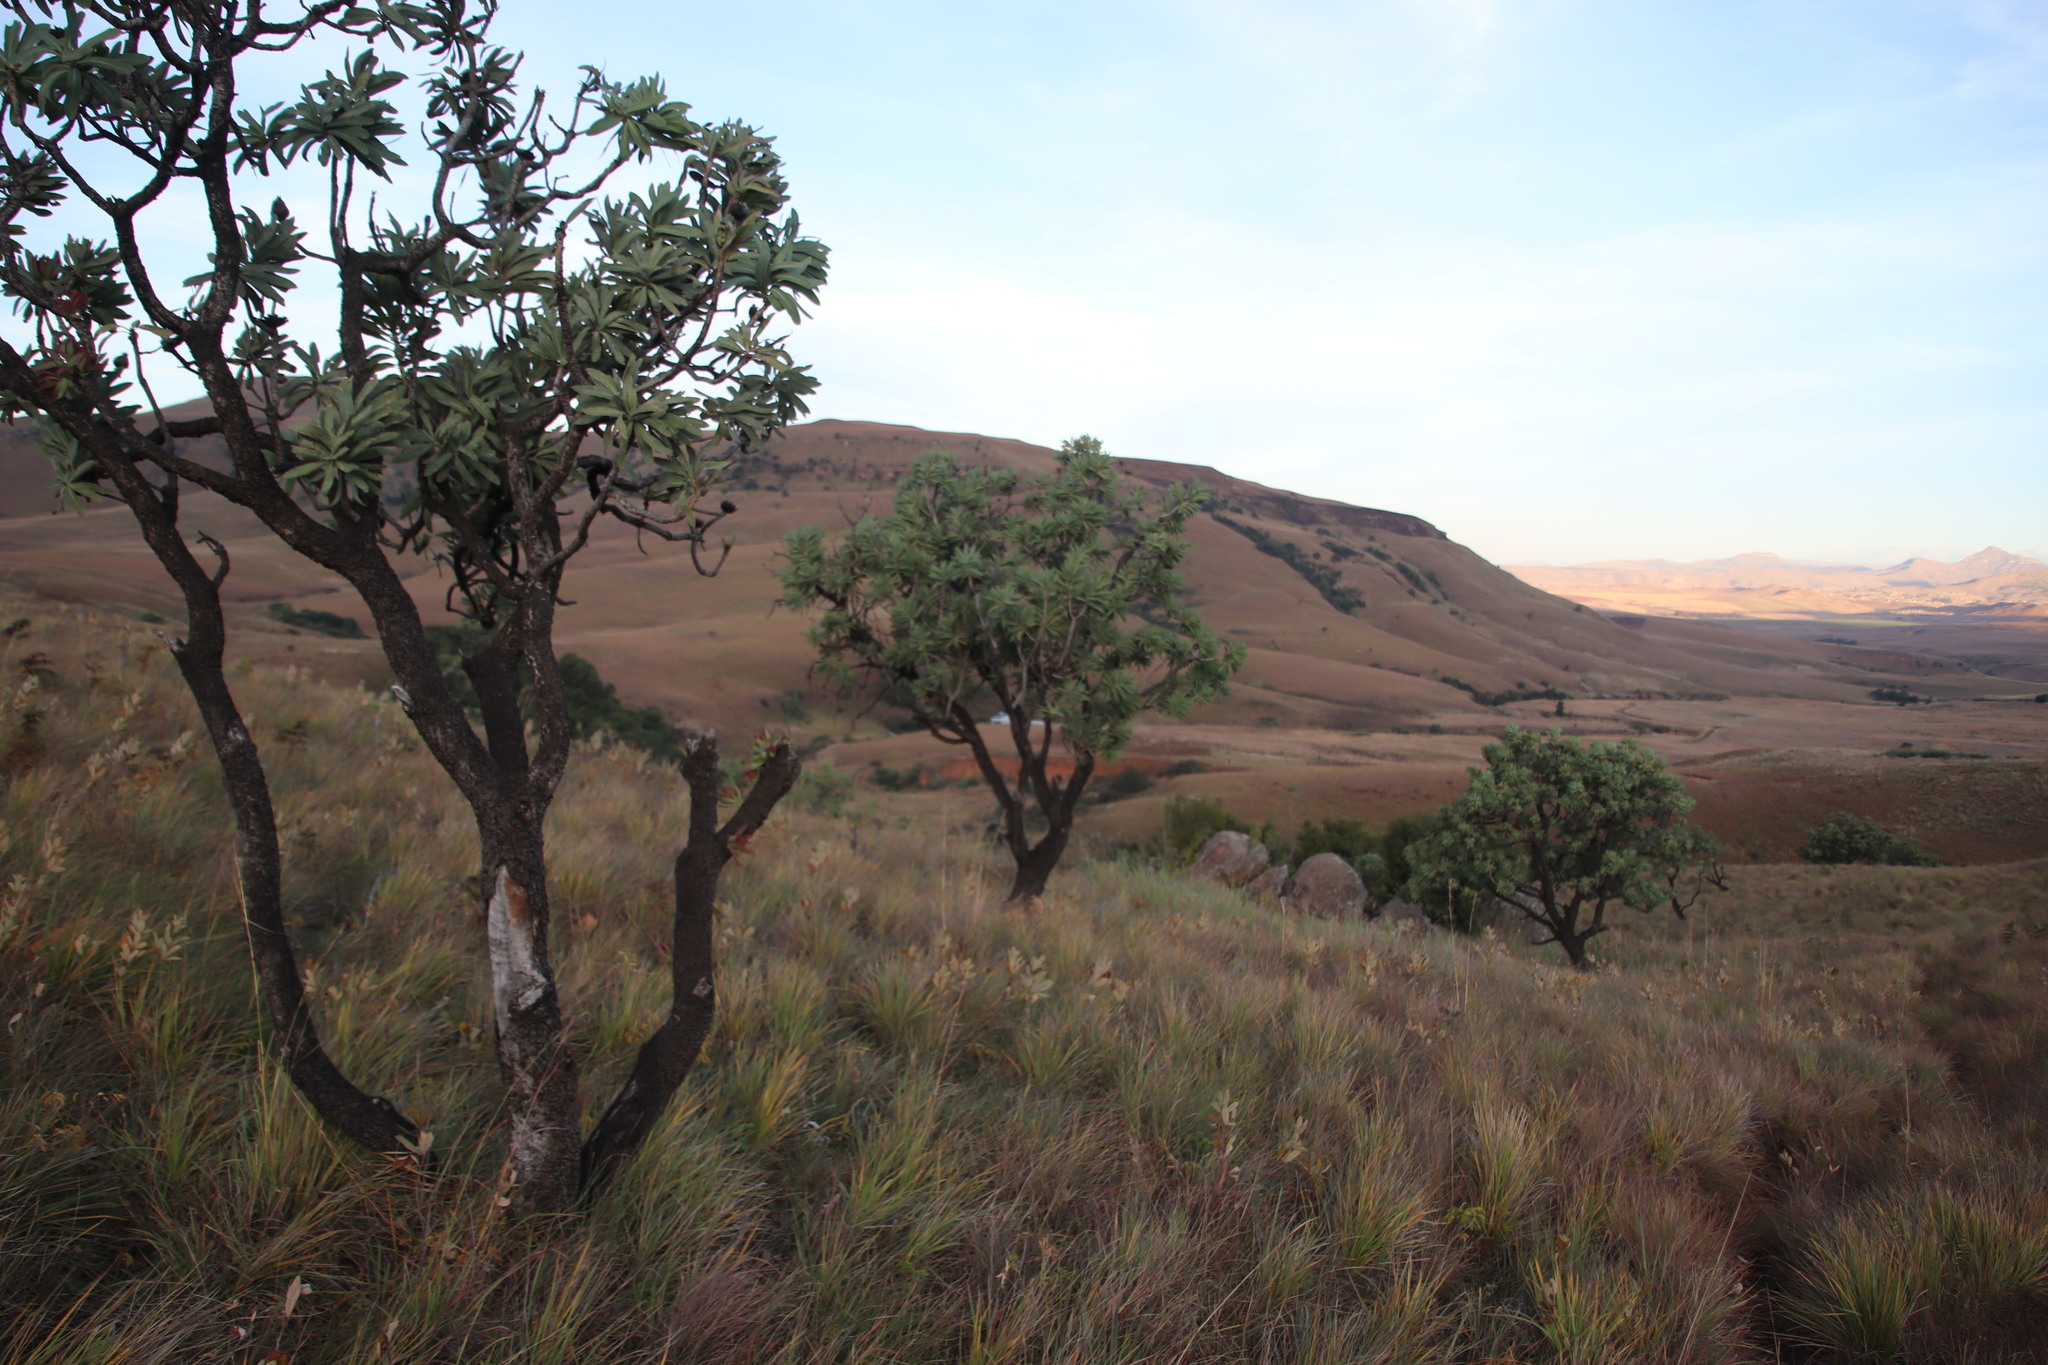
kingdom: Plantae
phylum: Tracheophyta
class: Magnoliopsida
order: Sapindales
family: Anacardiaceae
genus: Searsia
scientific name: Searsia discolor
